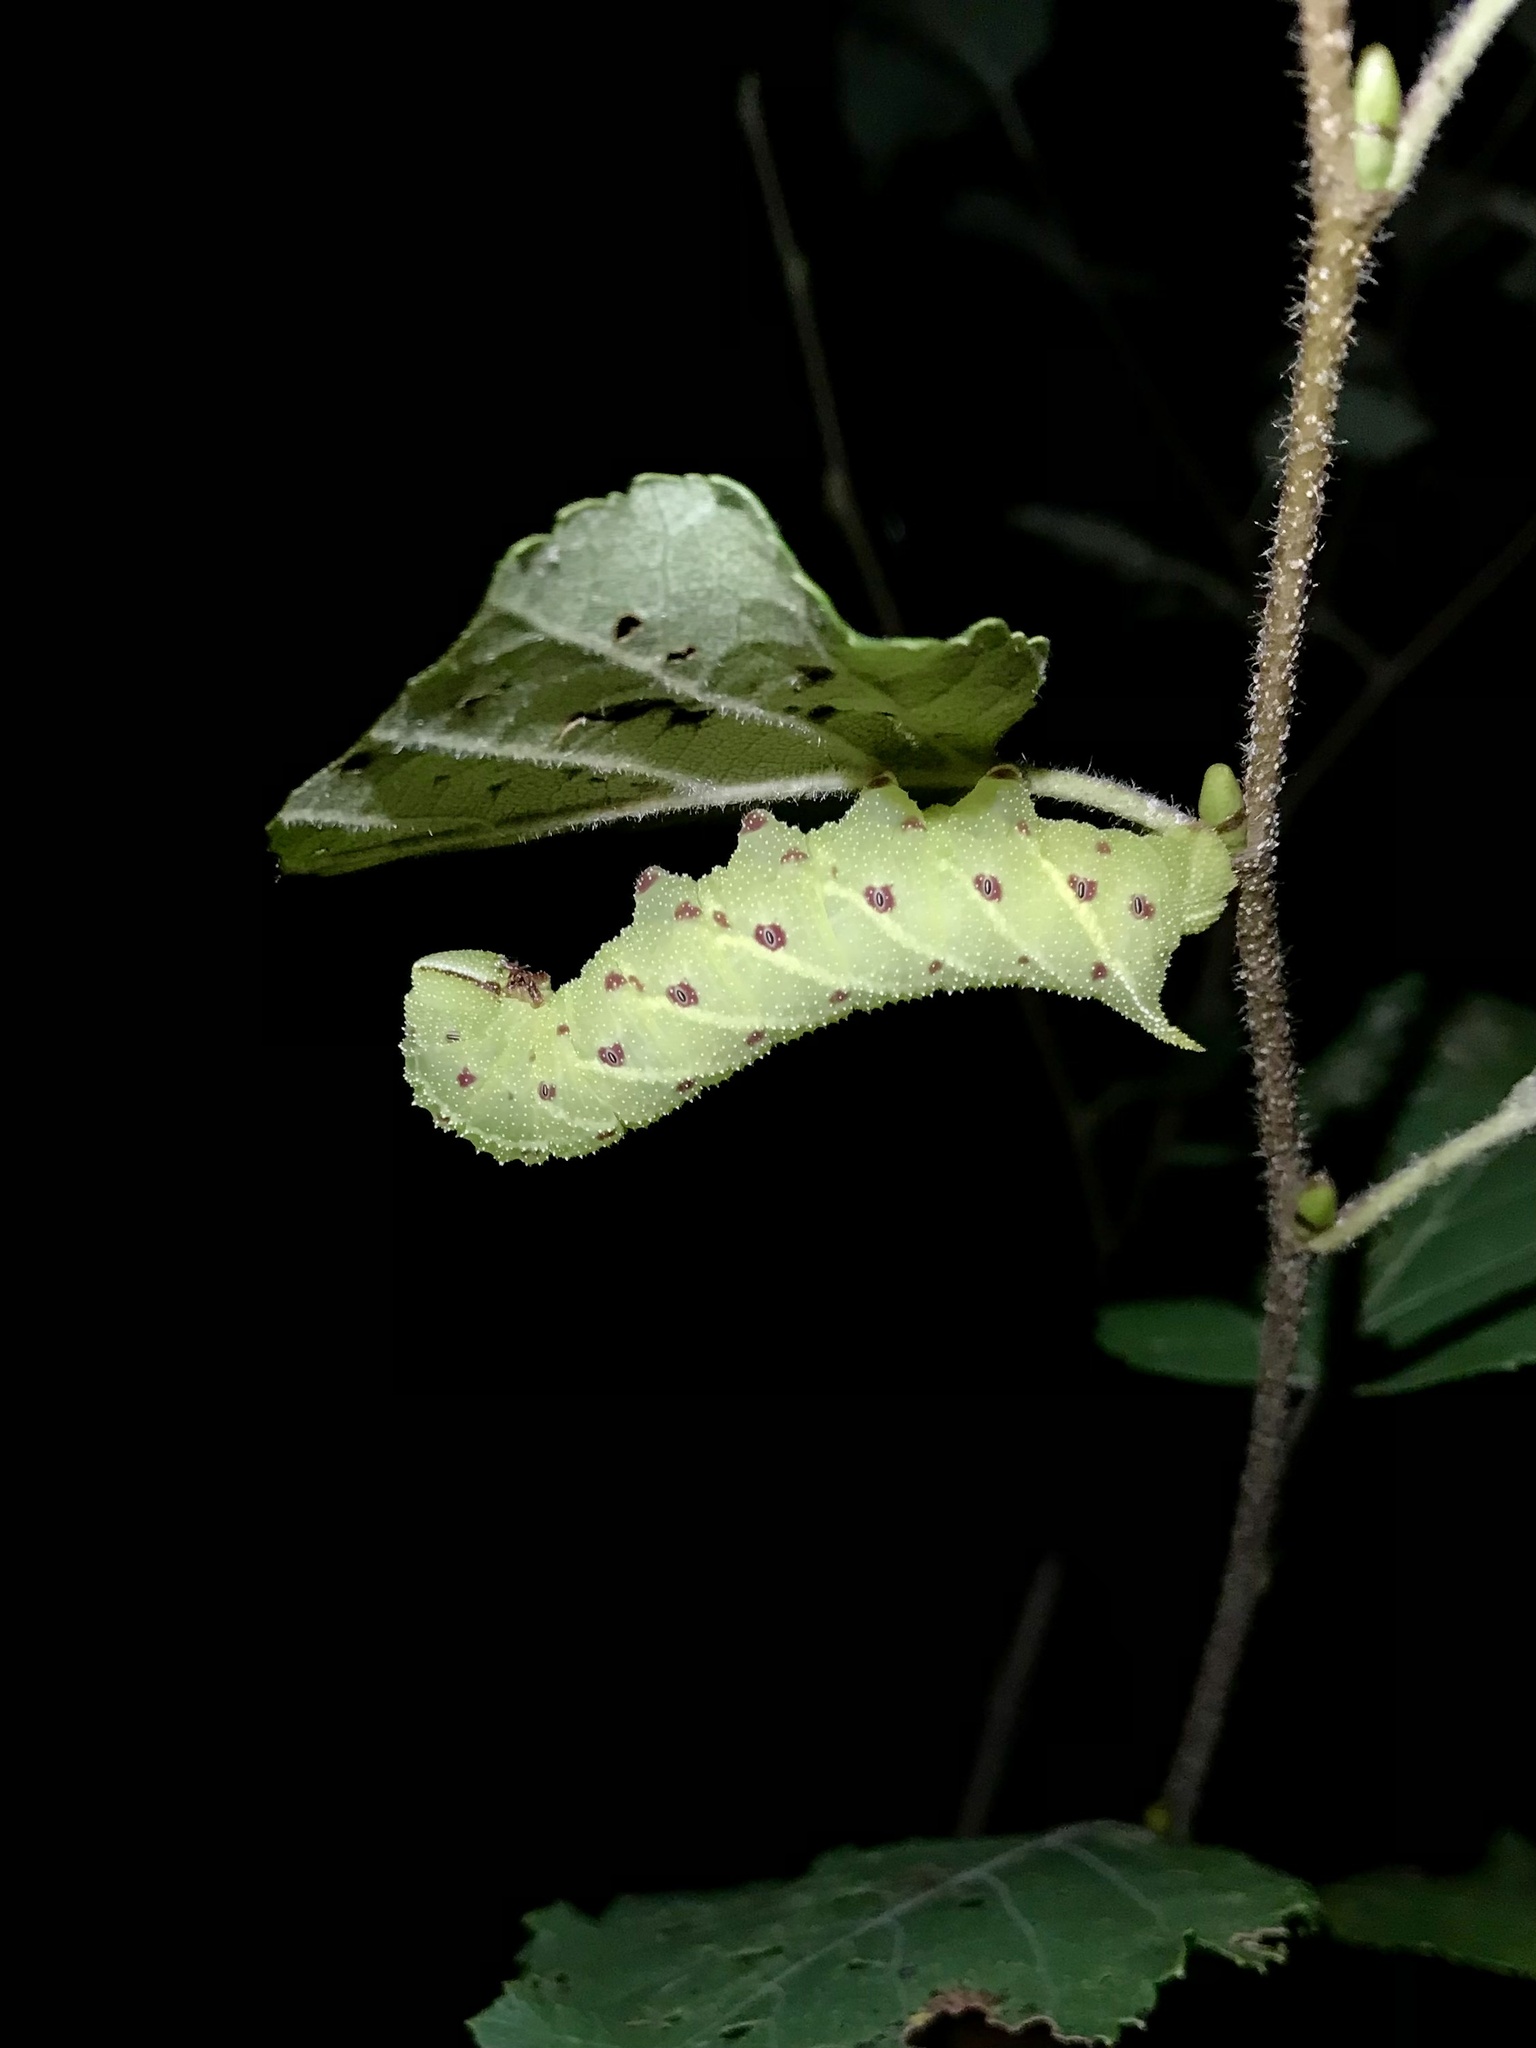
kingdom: Animalia
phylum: Arthropoda
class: Insecta
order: Lepidoptera
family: Sphingidae
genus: Paonias
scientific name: Paonias excaecata
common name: Blind-eyed sphinx
